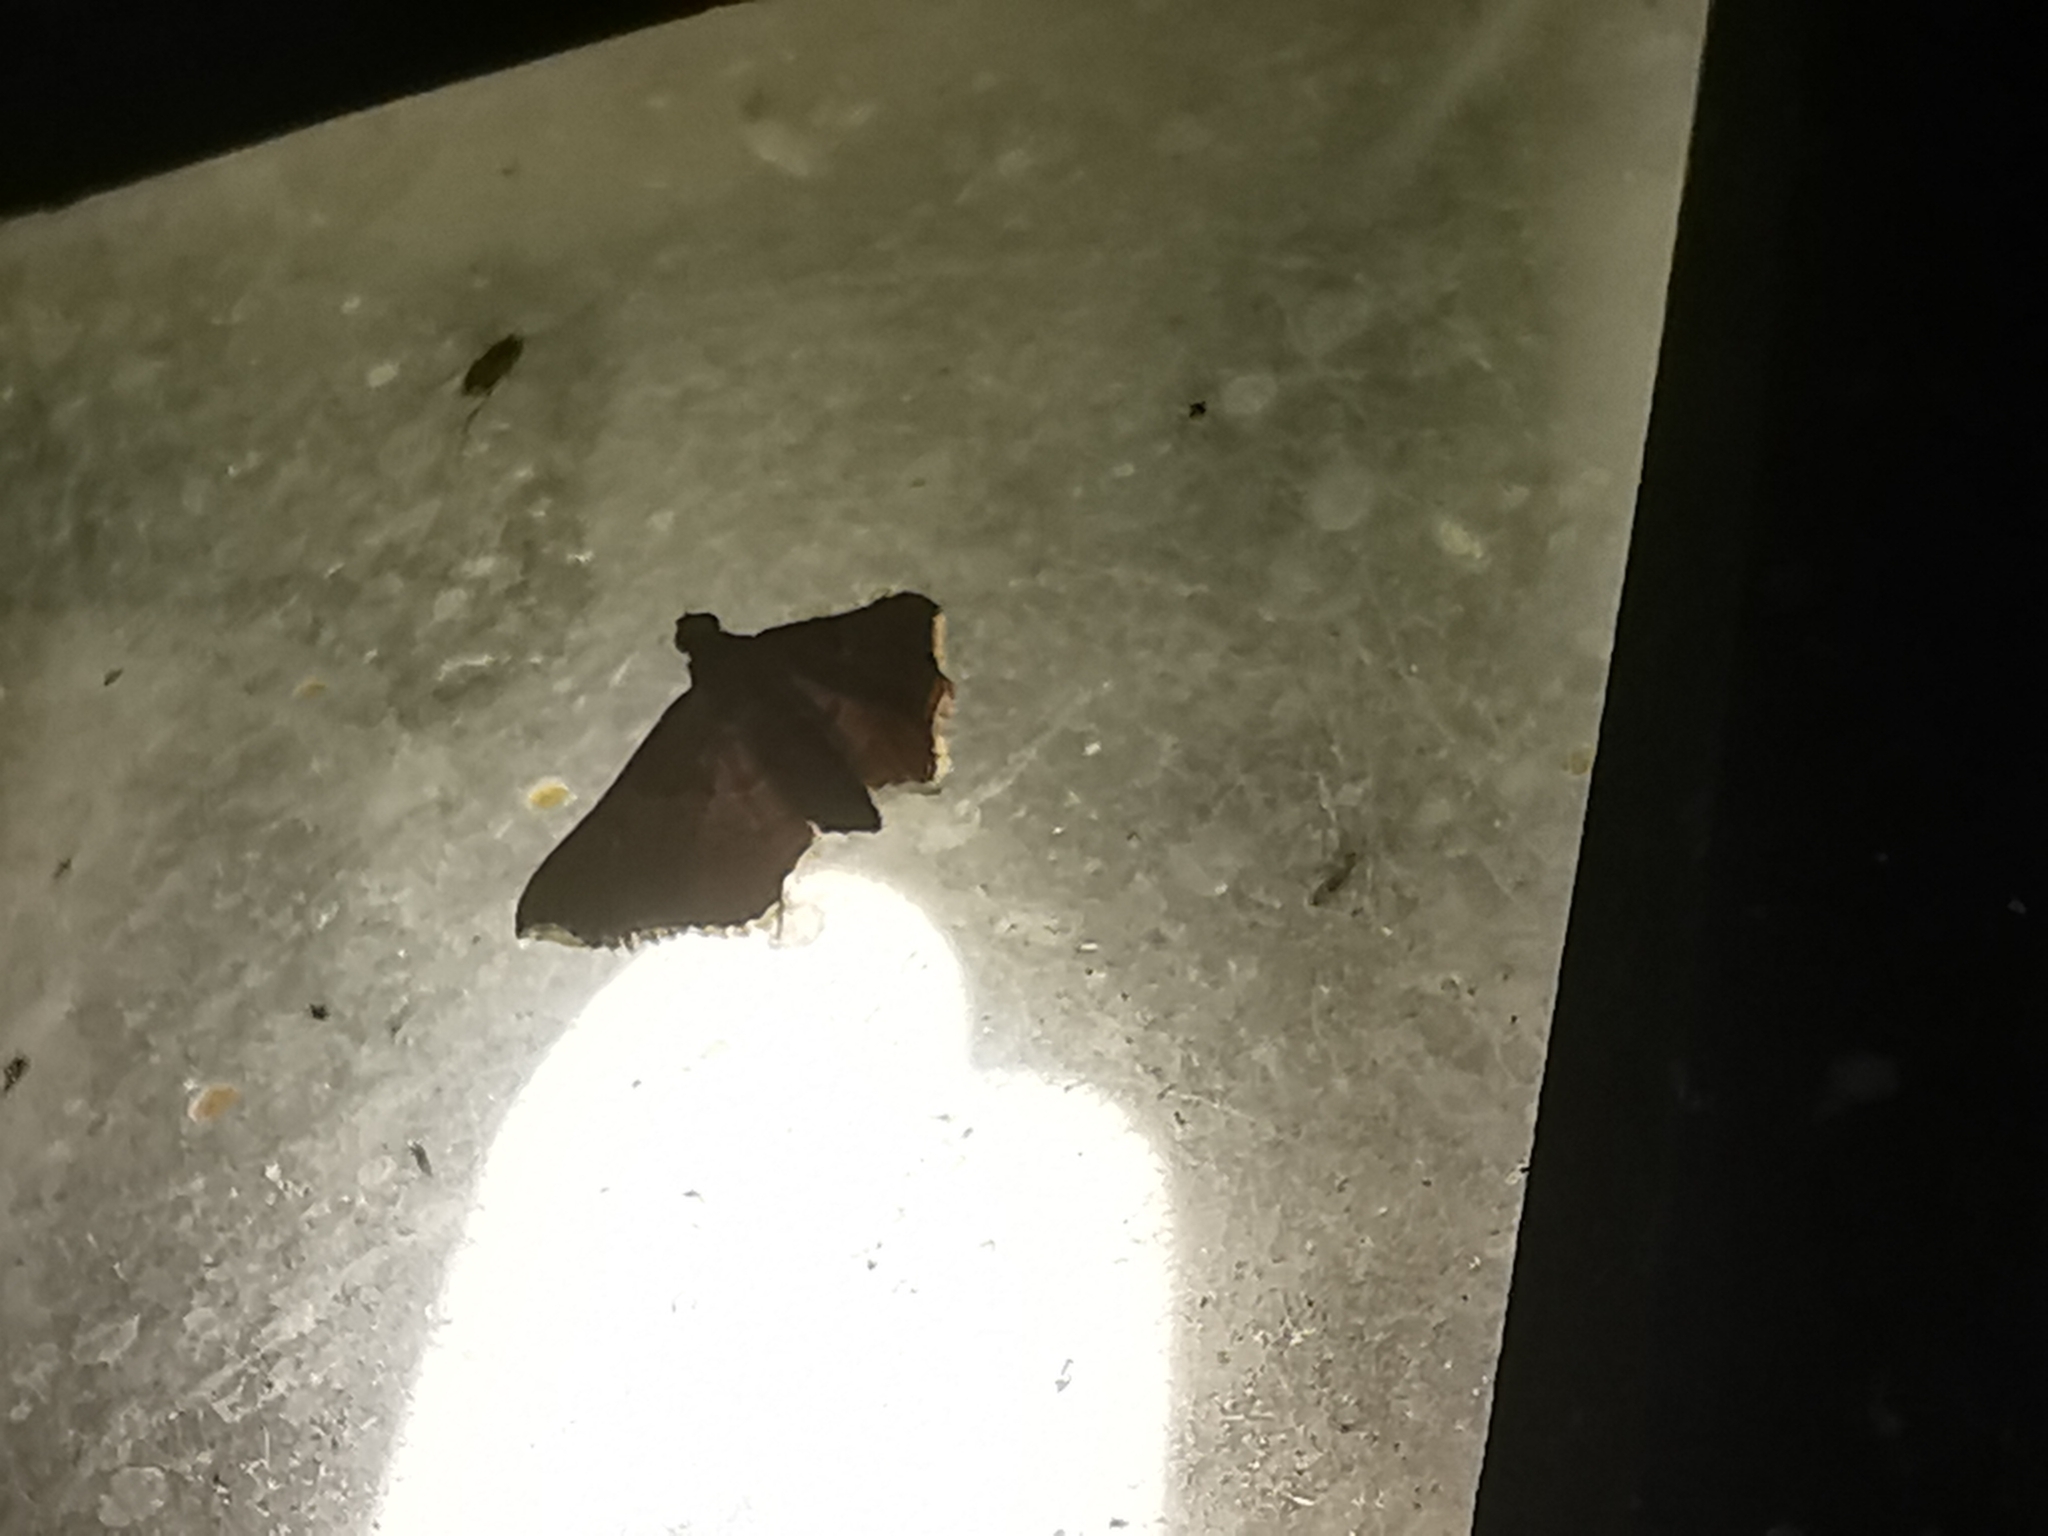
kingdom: Animalia
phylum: Arthropoda
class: Insecta
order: Lepidoptera
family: Pyralidae
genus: Endotricha
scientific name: Endotricha flammealis
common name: Rosy tabby
